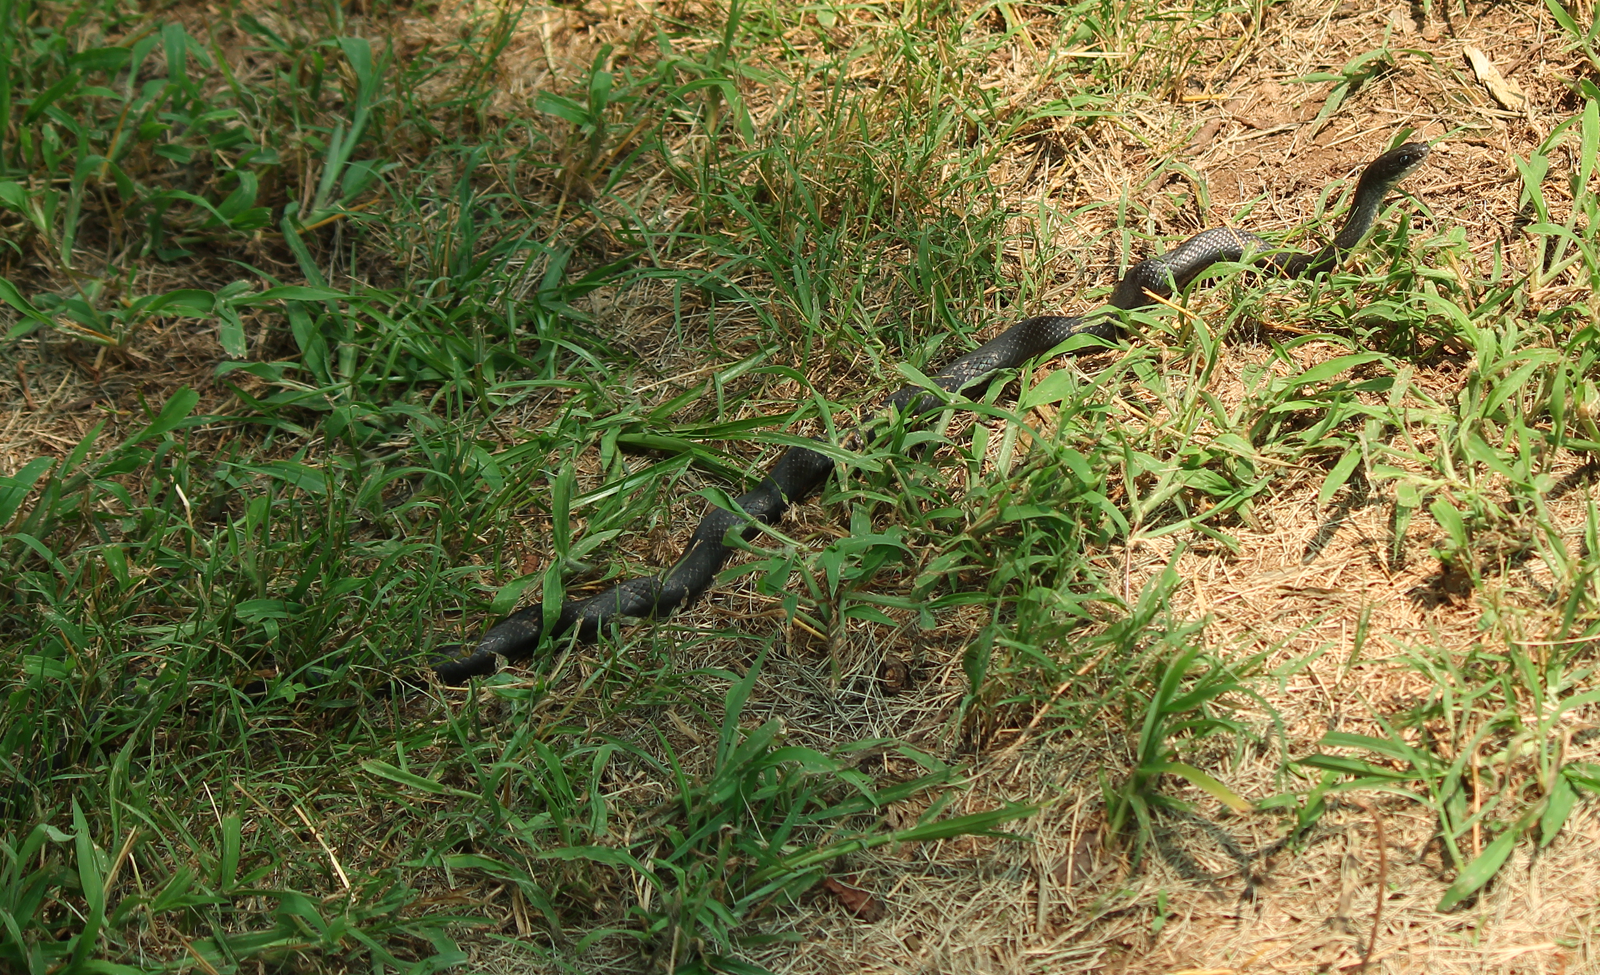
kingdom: Animalia
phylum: Chordata
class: Squamata
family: Colubridae
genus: Coluber
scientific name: Coluber constrictor
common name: Eastern racer
